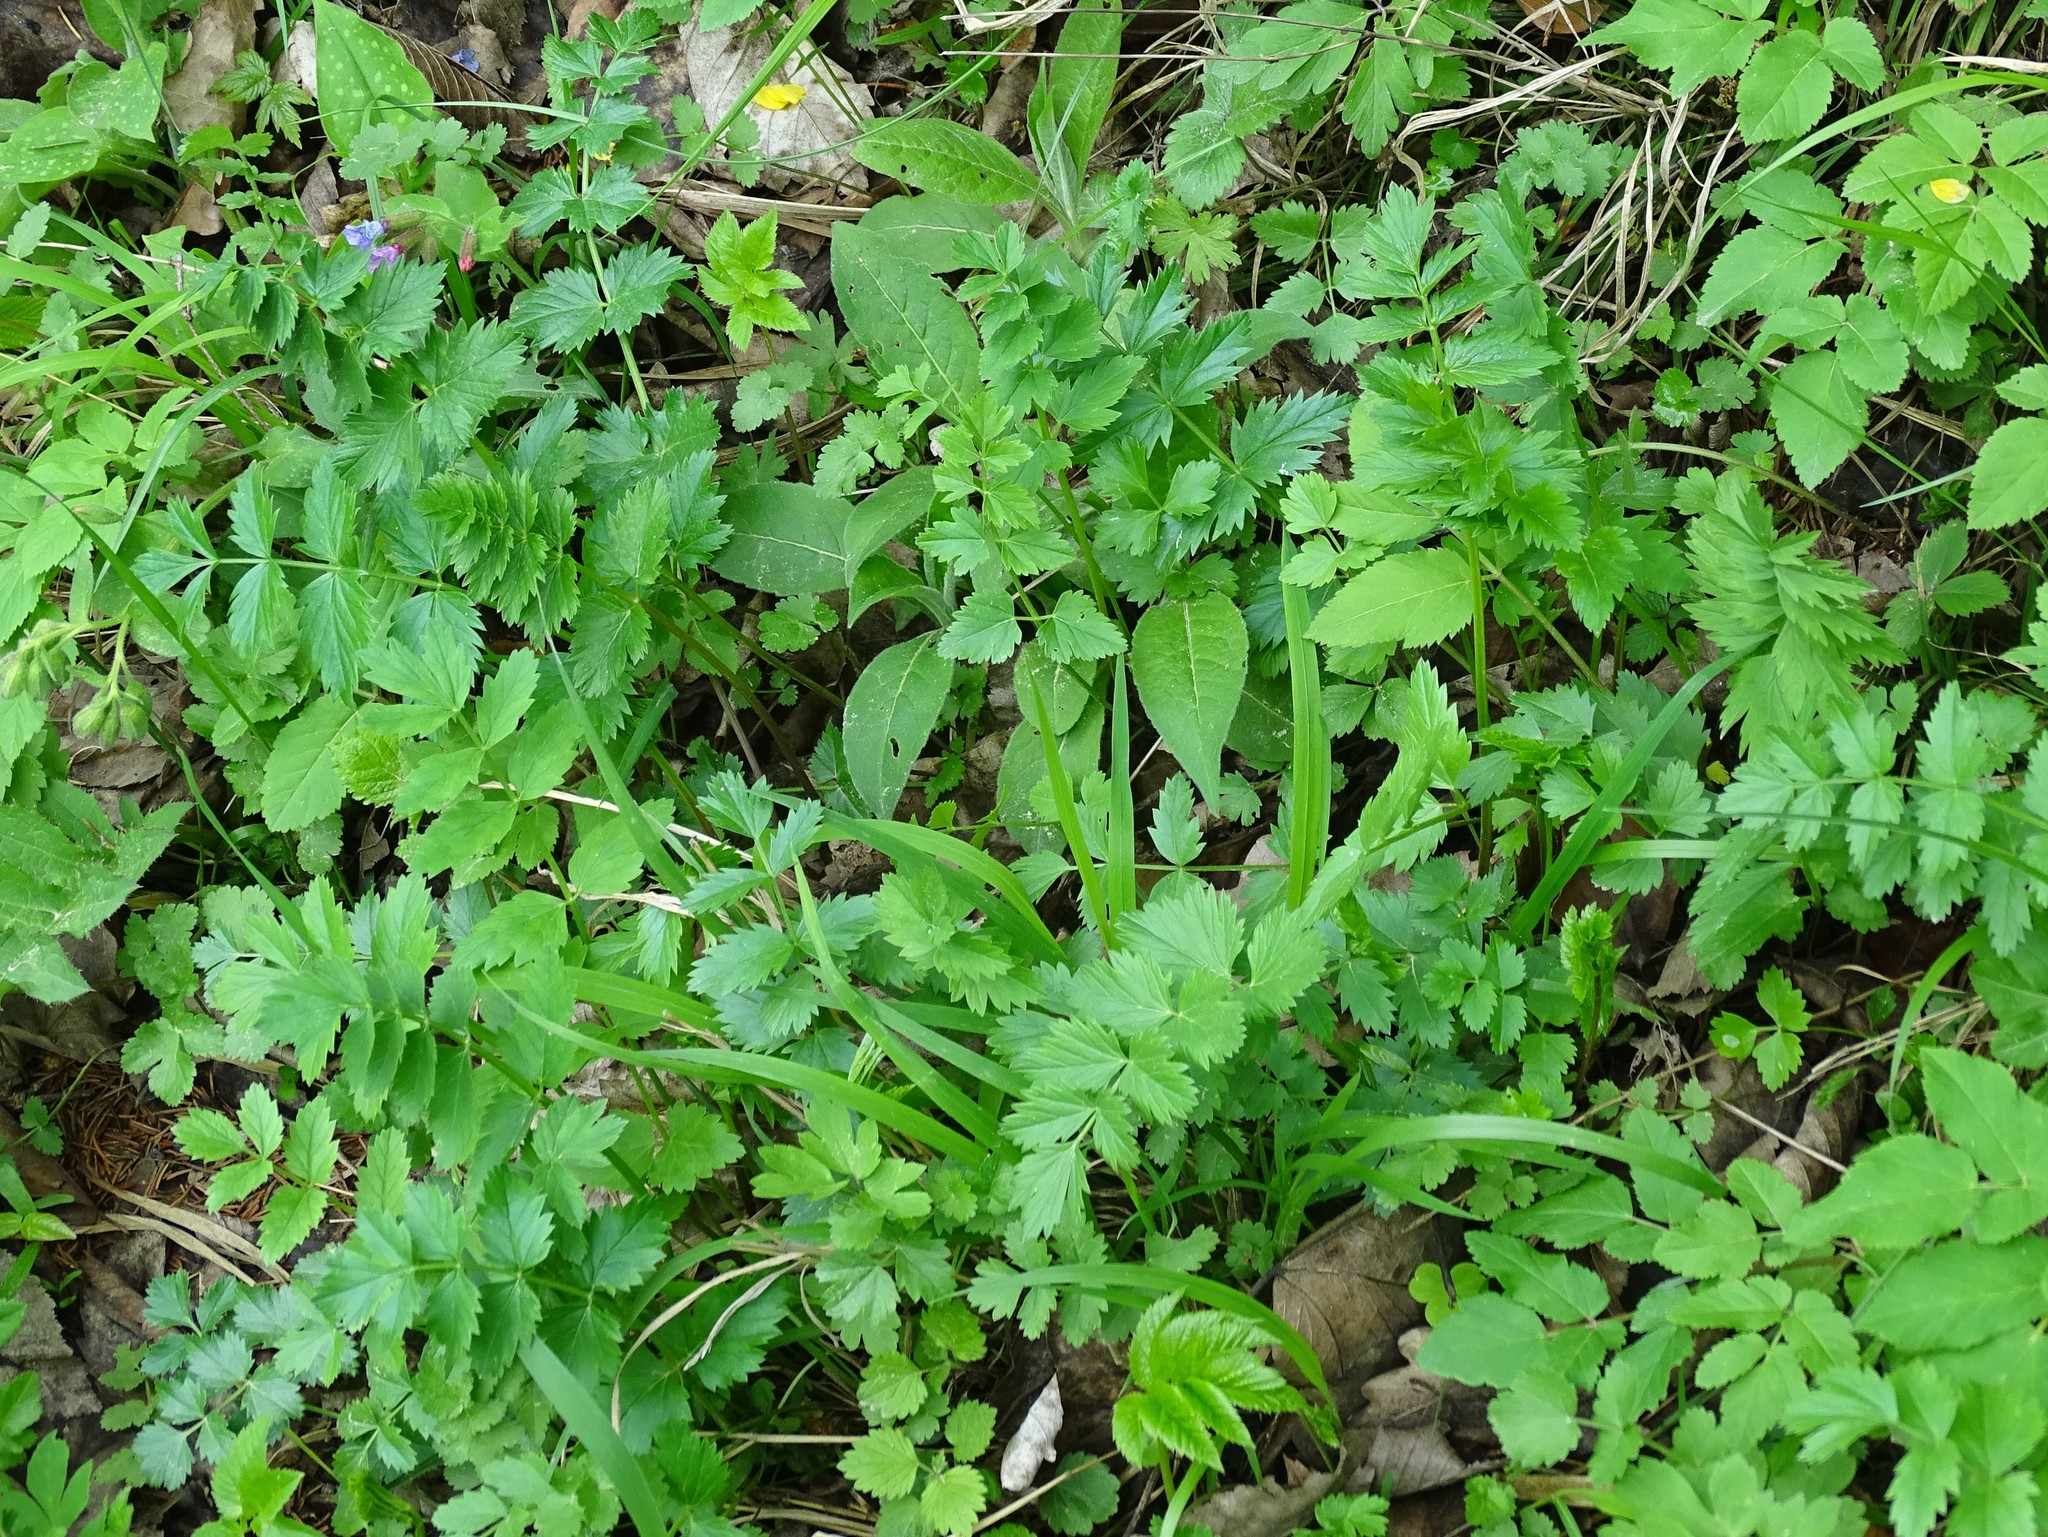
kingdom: Plantae
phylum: Tracheophyta
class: Magnoliopsida
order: Apiales
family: Apiaceae
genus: Pimpinella
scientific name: Pimpinella major
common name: Greater burnet-saxifrage
